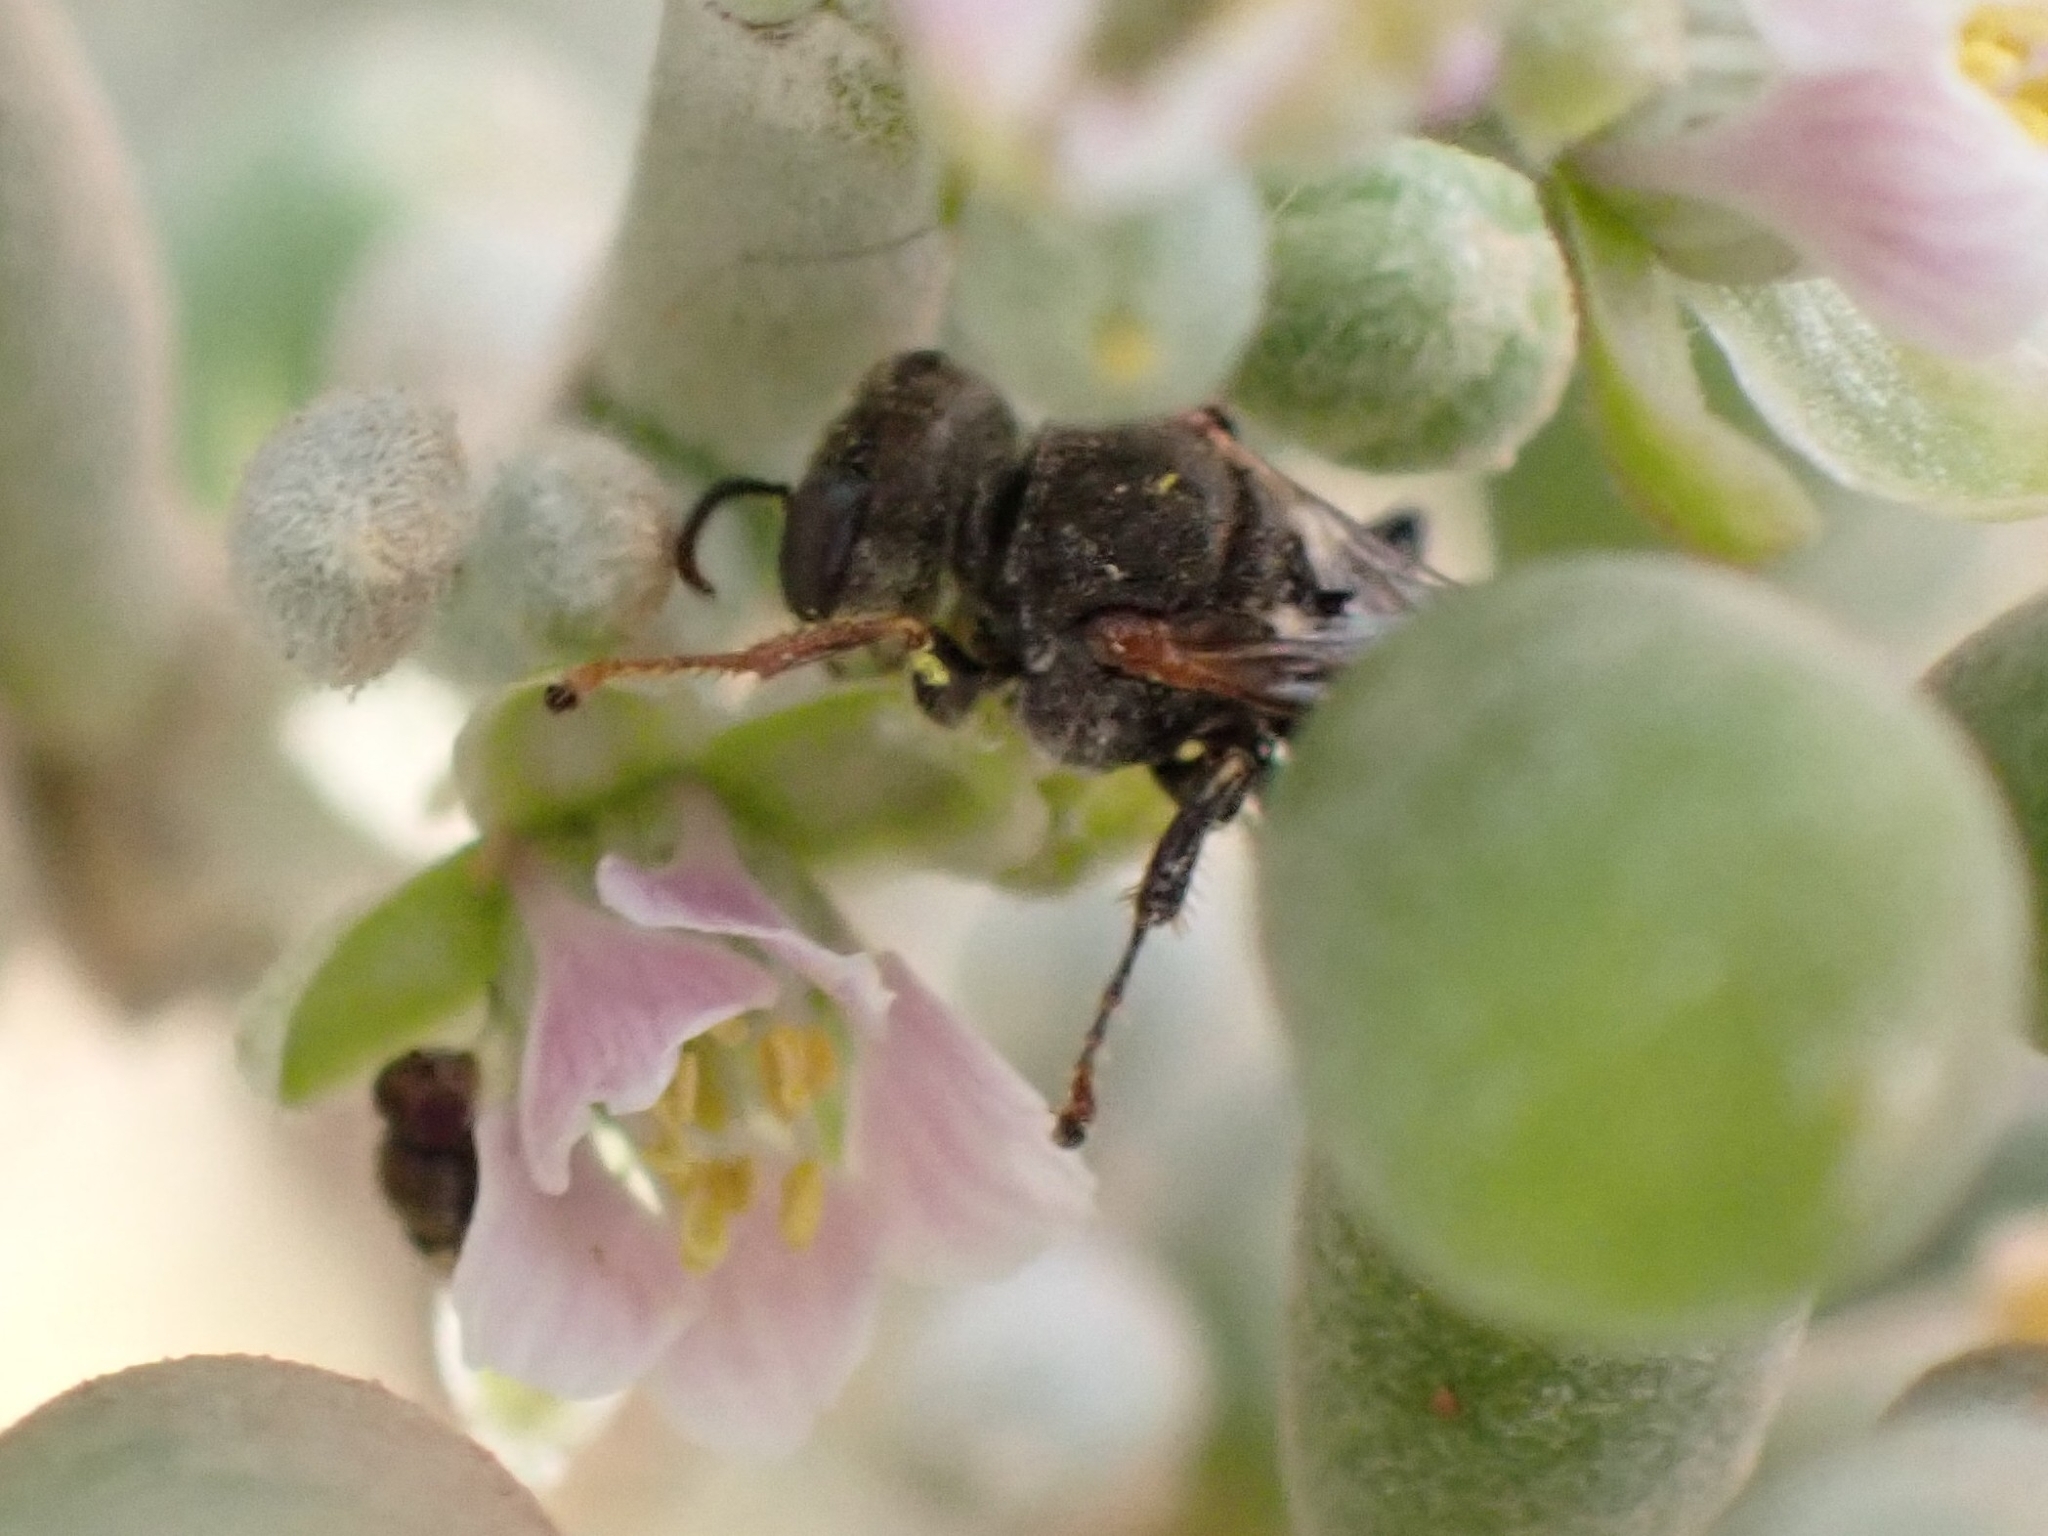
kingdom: Animalia
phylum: Arthropoda
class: Insecta
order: Hymenoptera
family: Crabronidae
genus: Oxybelus
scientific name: Oxybelus fischeri
